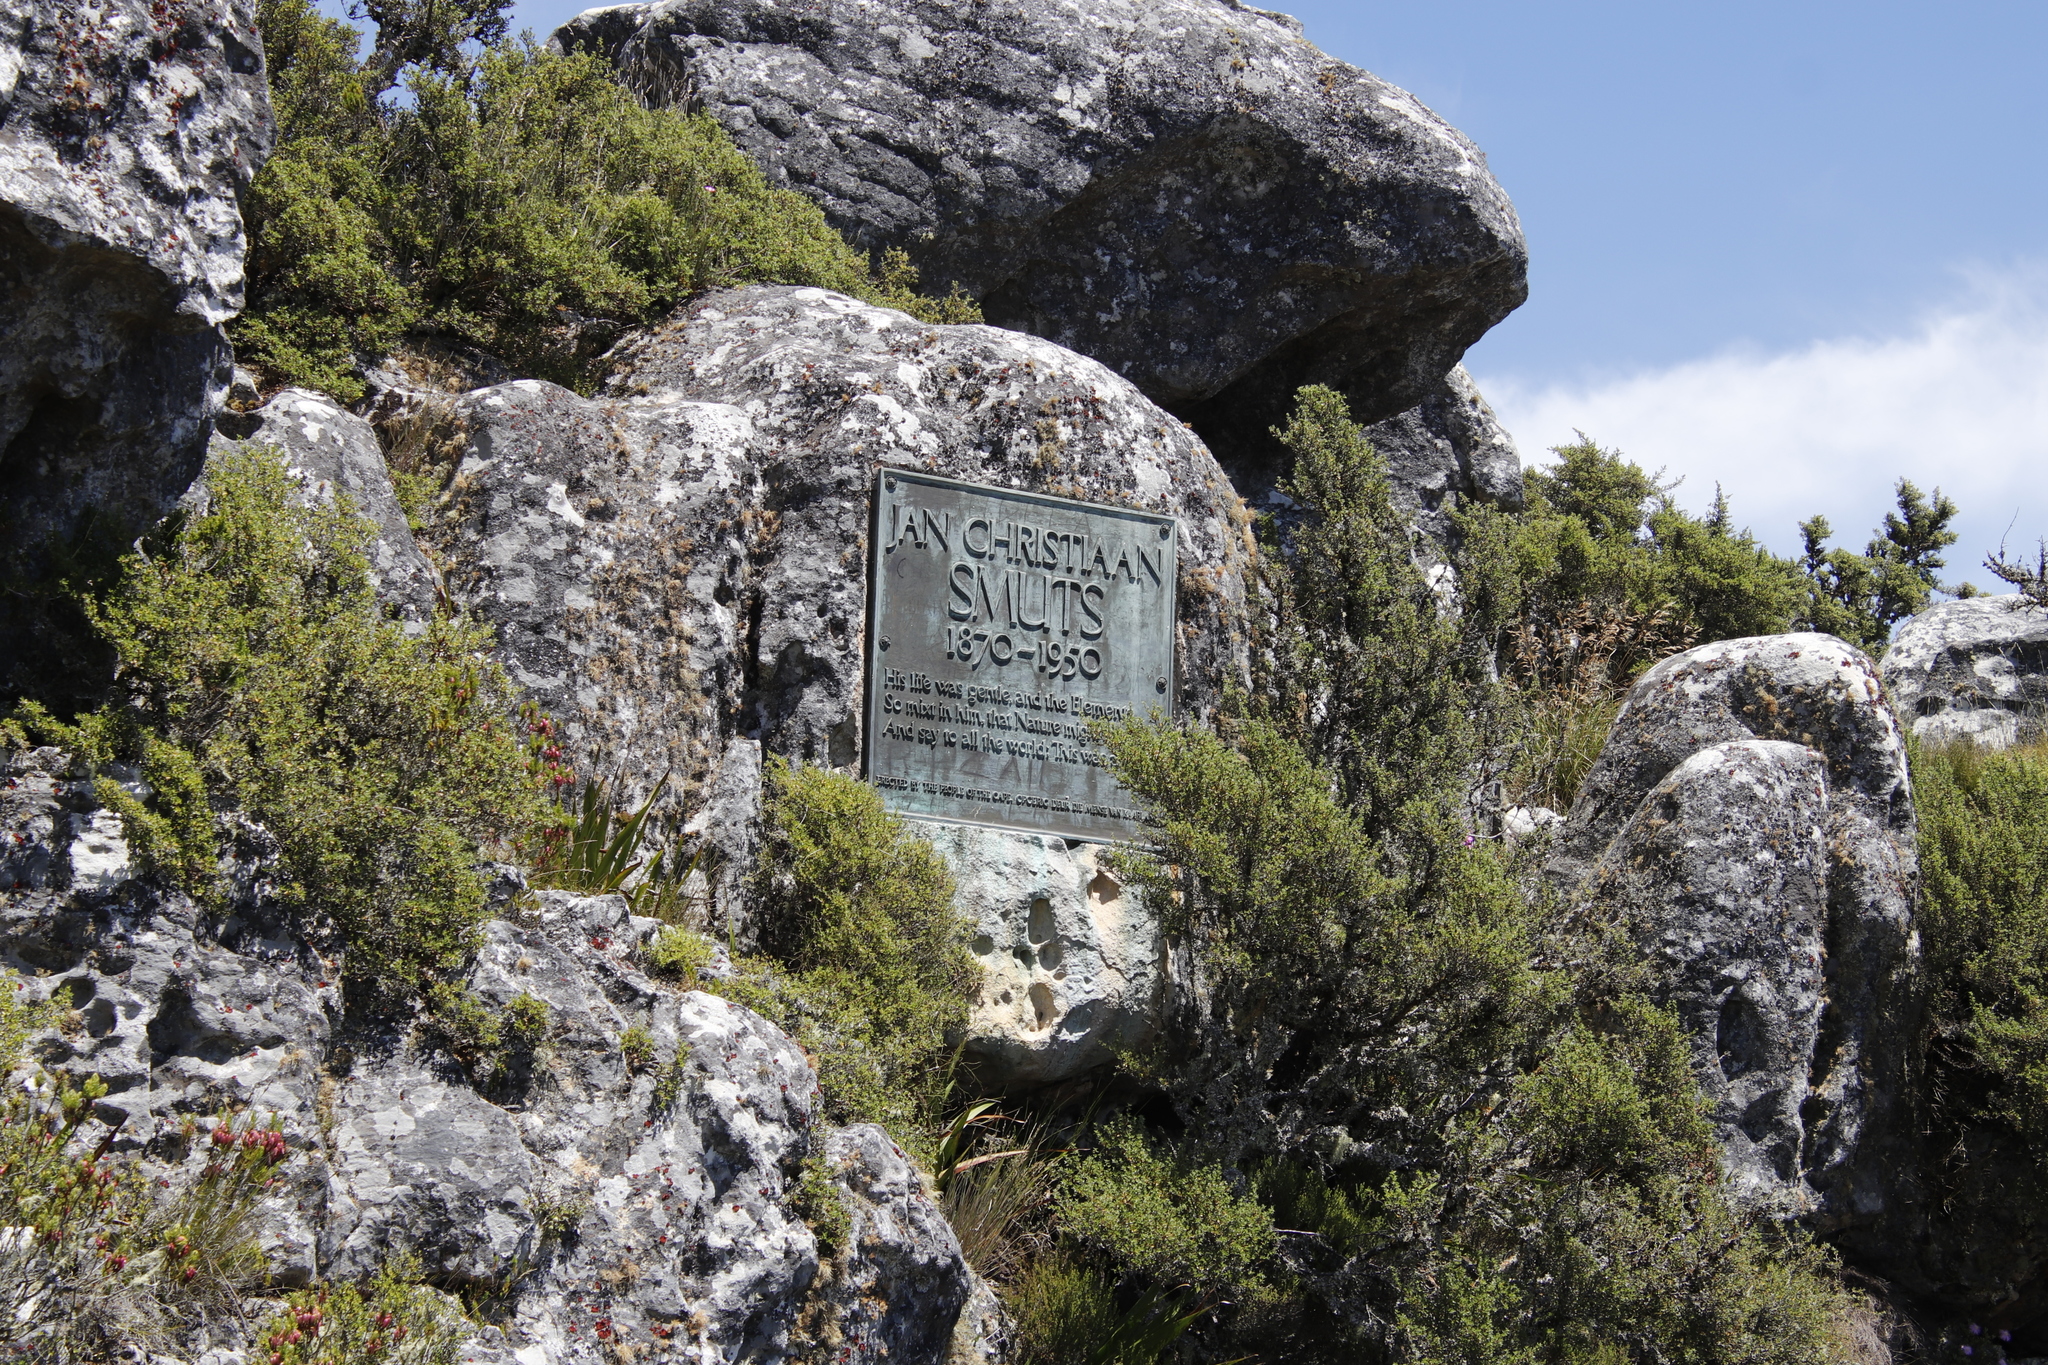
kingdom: Plantae
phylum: Tracheophyta
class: Magnoliopsida
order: Rosales
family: Rosaceae
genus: Cliffortia
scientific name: Cliffortia tridentata
